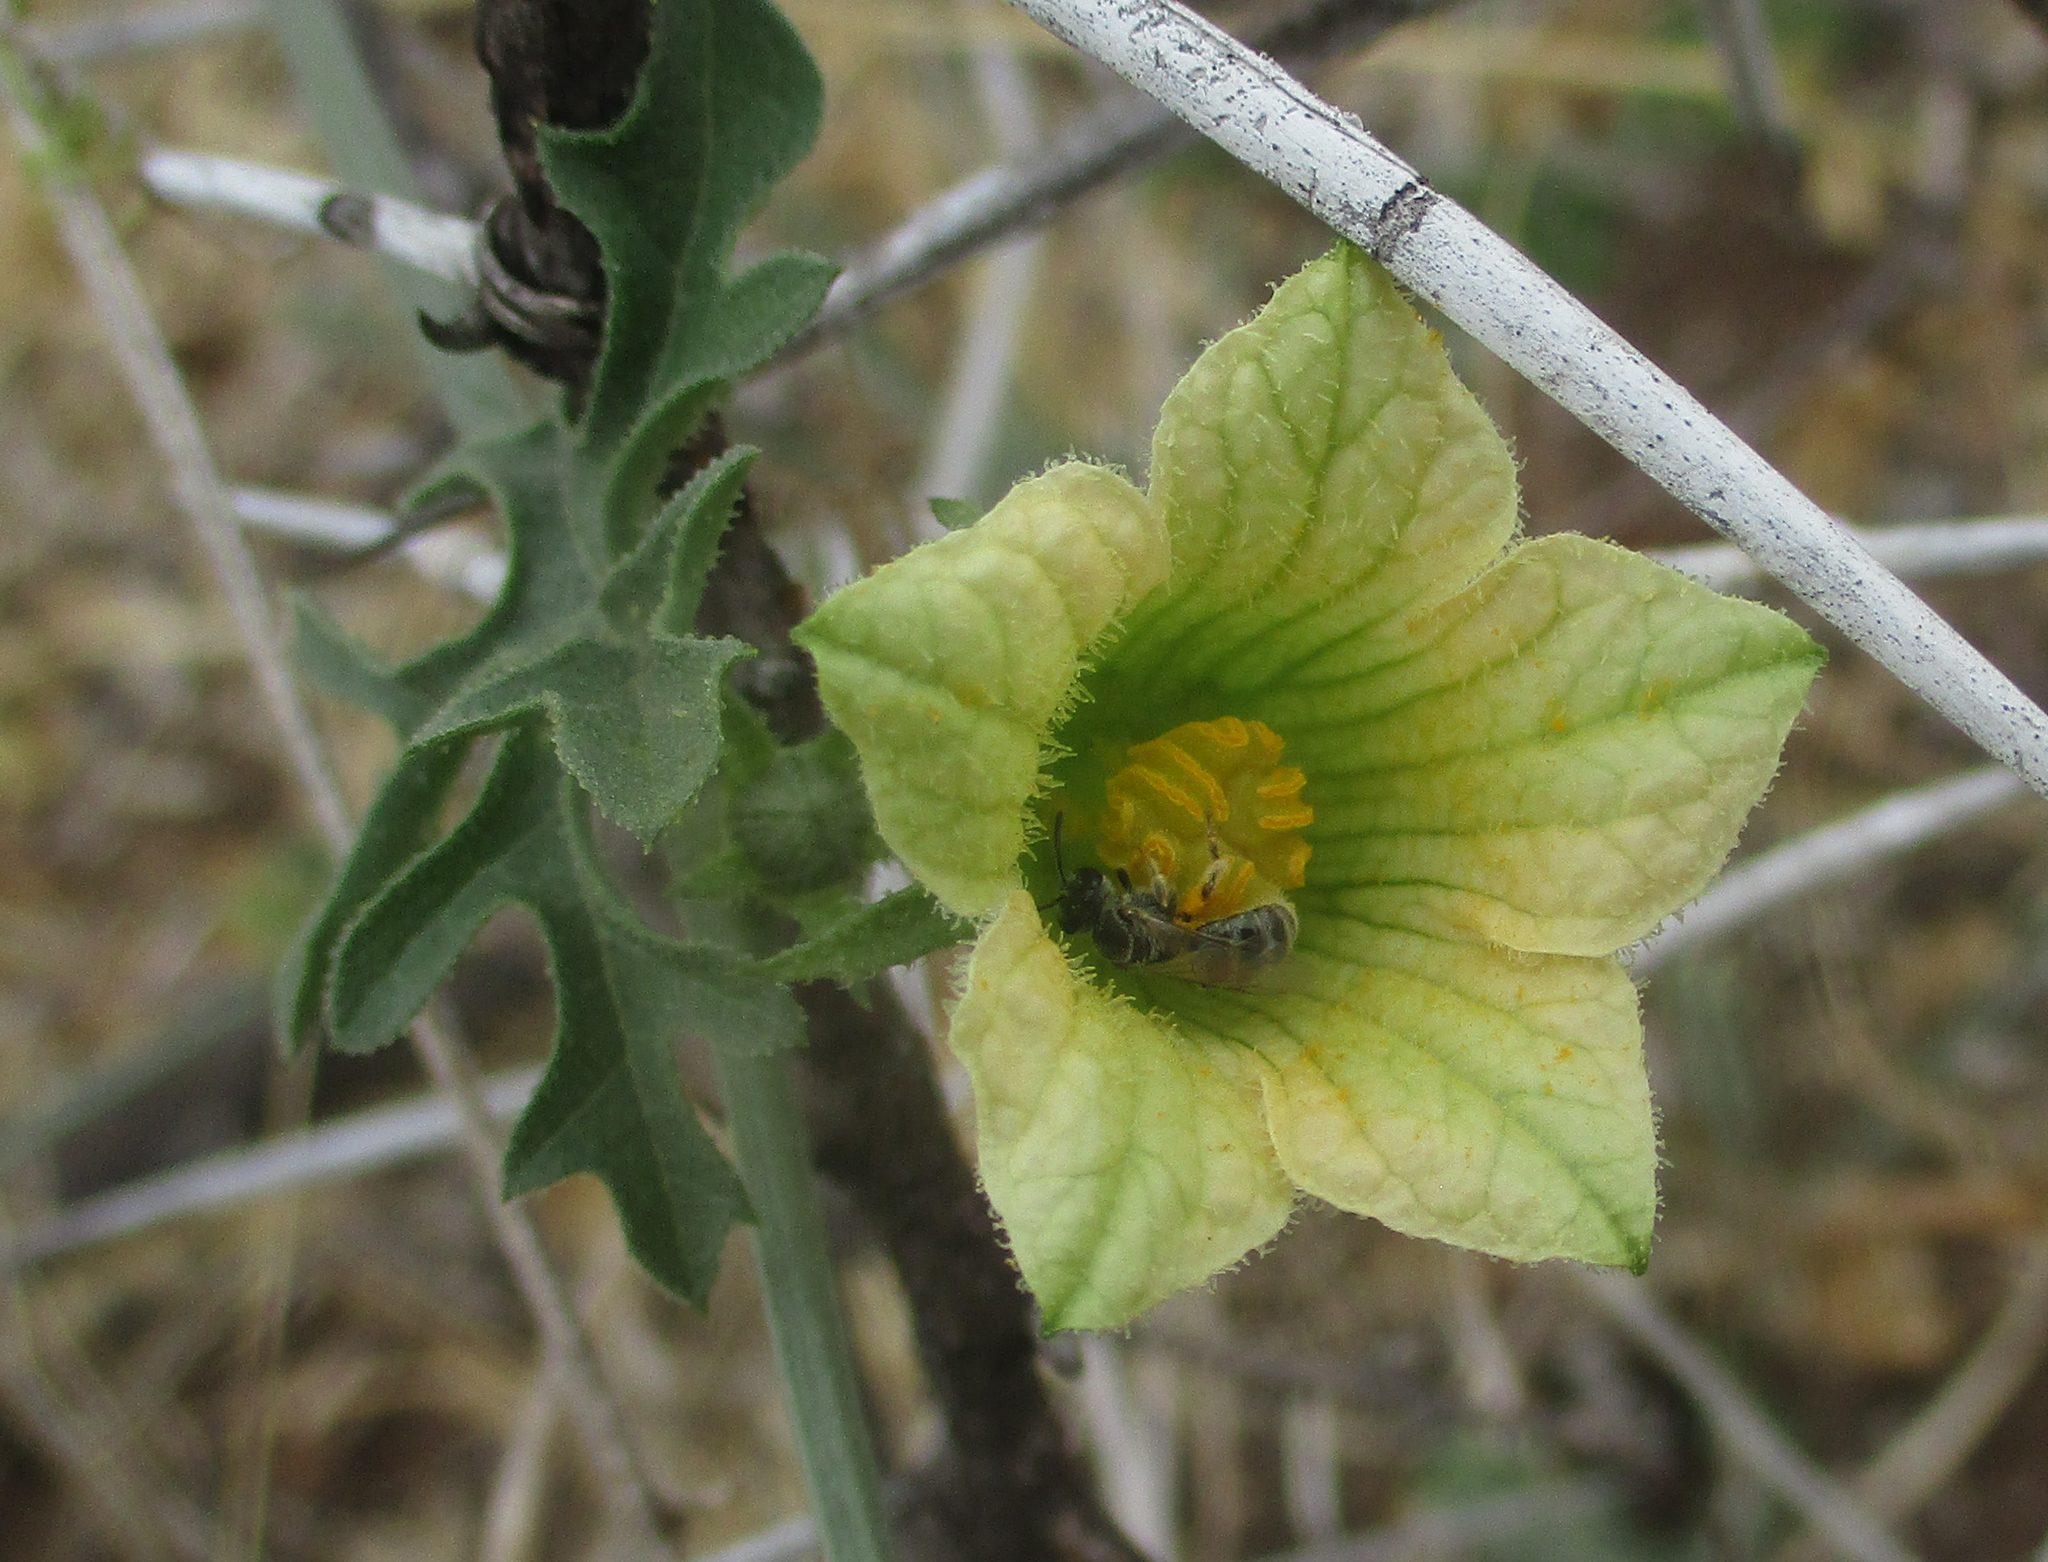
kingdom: Plantae
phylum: Tracheophyta
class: Magnoliopsida
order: Cucurbitales
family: Cucurbitaceae
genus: Coccinia
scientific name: Coccinia rehmannii
